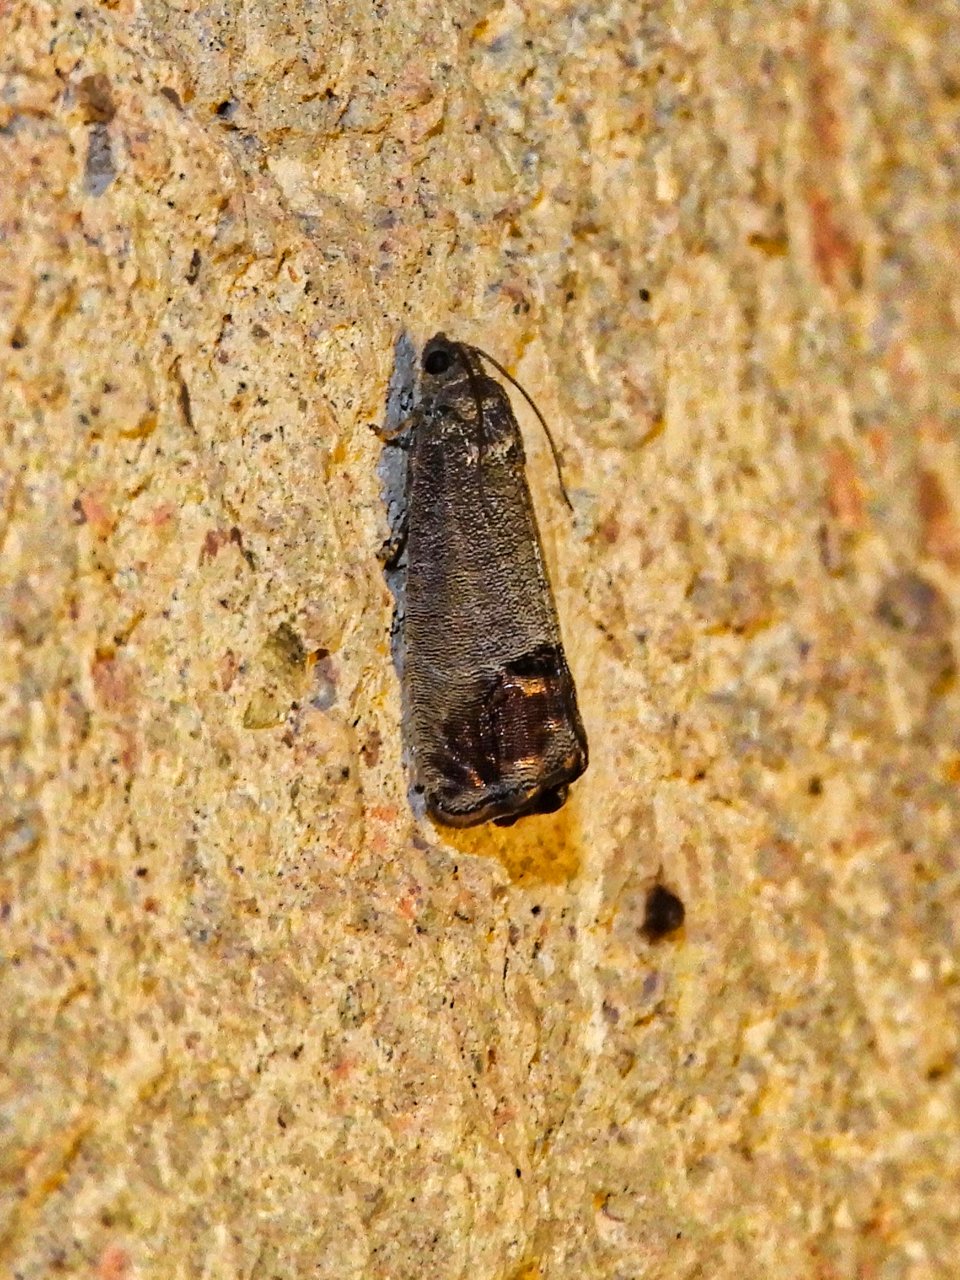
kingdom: Animalia
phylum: Arthropoda
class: Insecta
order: Lepidoptera
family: Tortricidae
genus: Cydia
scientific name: Cydia pomonella
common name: Codling moth
